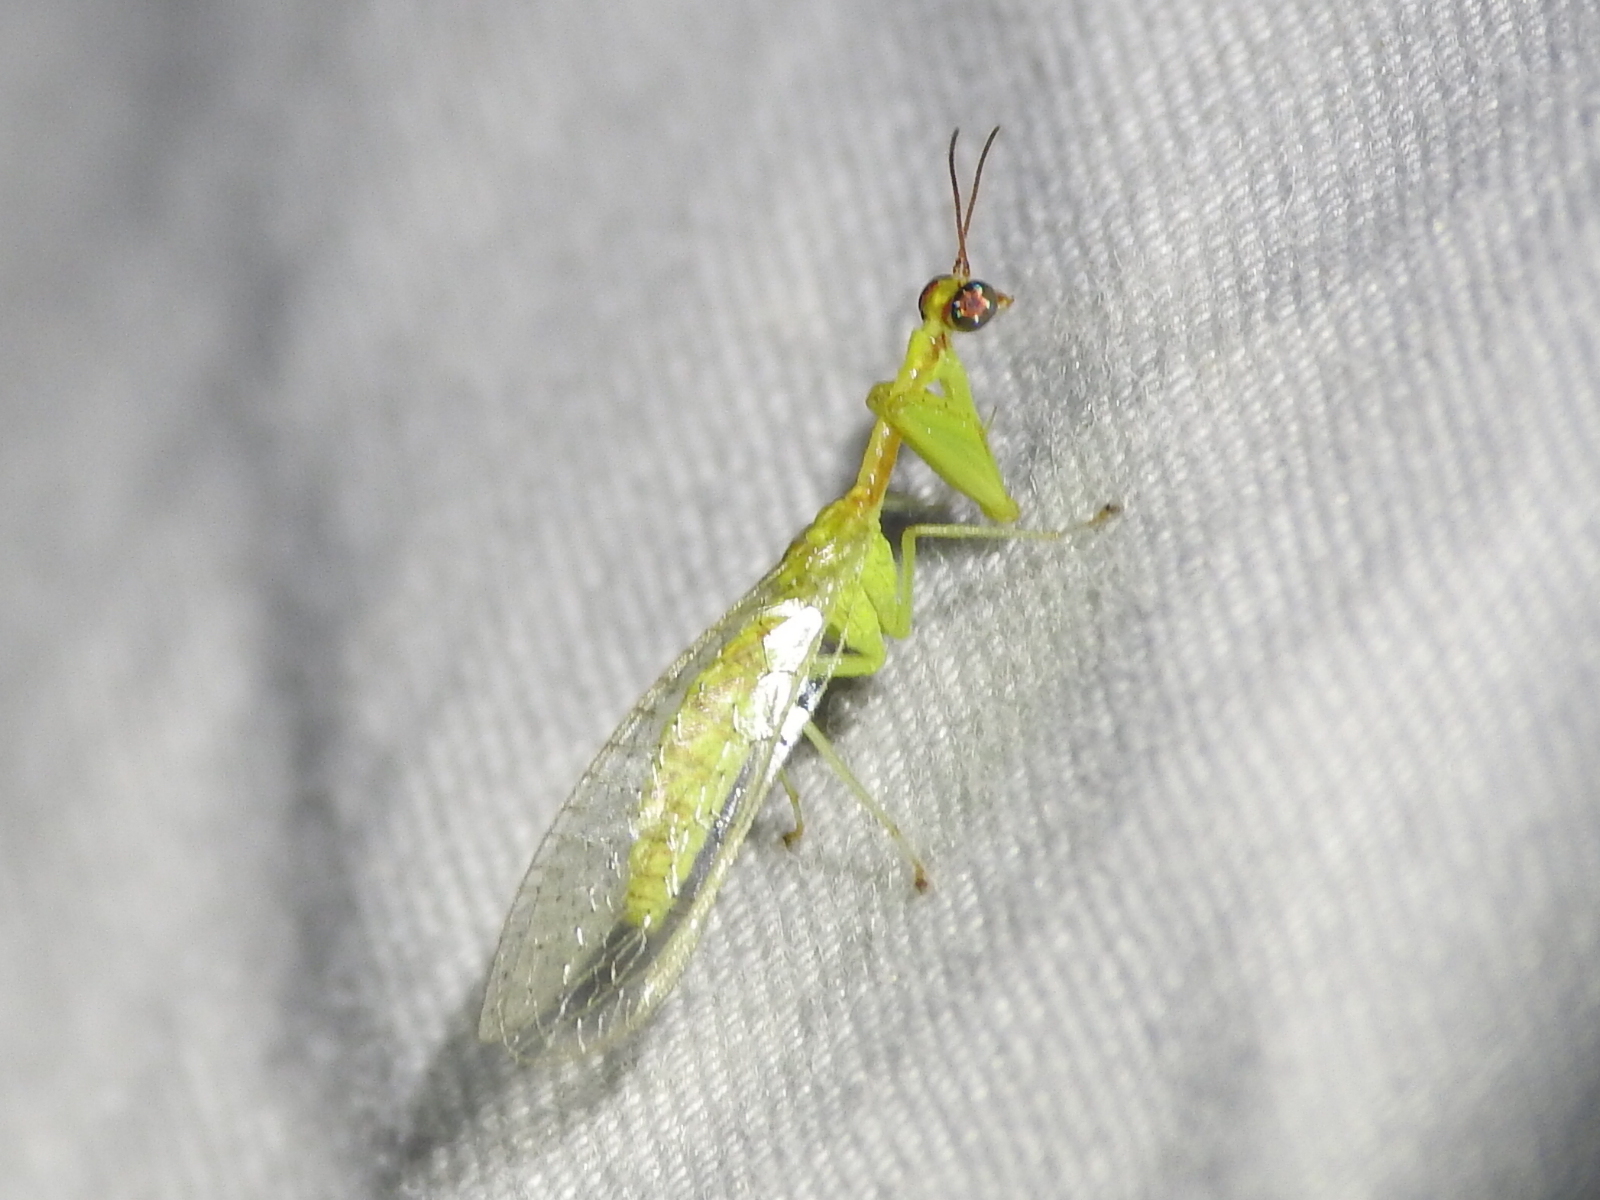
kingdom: Animalia
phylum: Arthropoda
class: Insecta
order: Neuroptera
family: Mantispidae
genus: Zeugomantispa
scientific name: Zeugomantispa minuta
